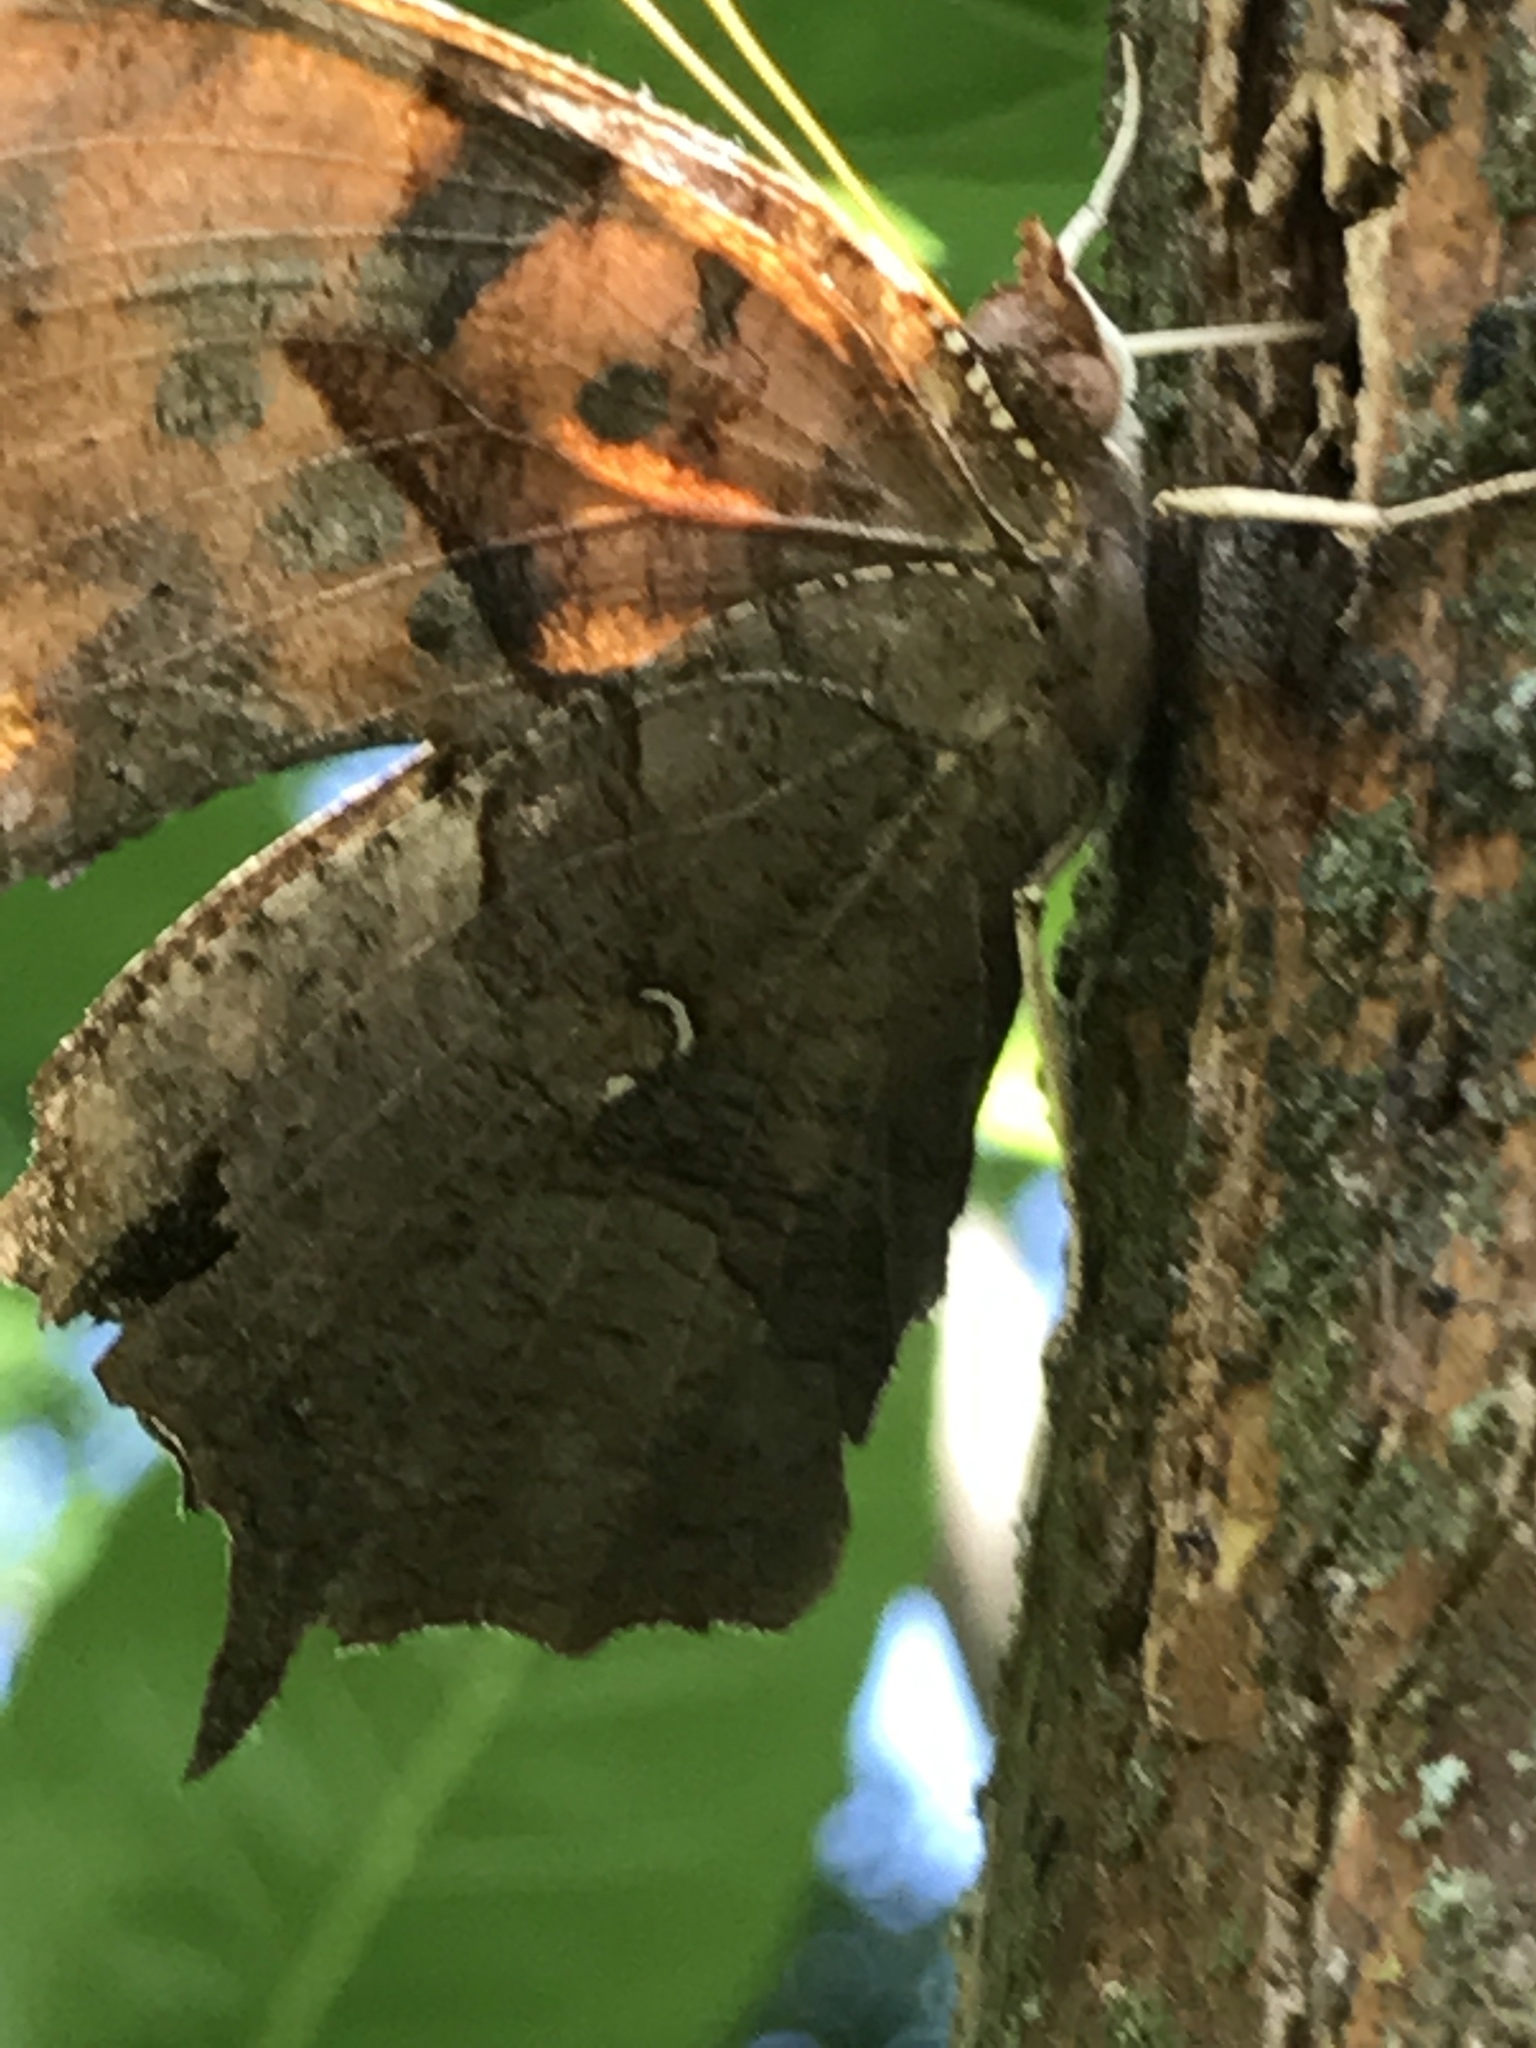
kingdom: Animalia
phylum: Arthropoda
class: Insecta
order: Lepidoptera
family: Nymphalidae
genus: Polygonia
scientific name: Polygonia interrogationis
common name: Question mark
